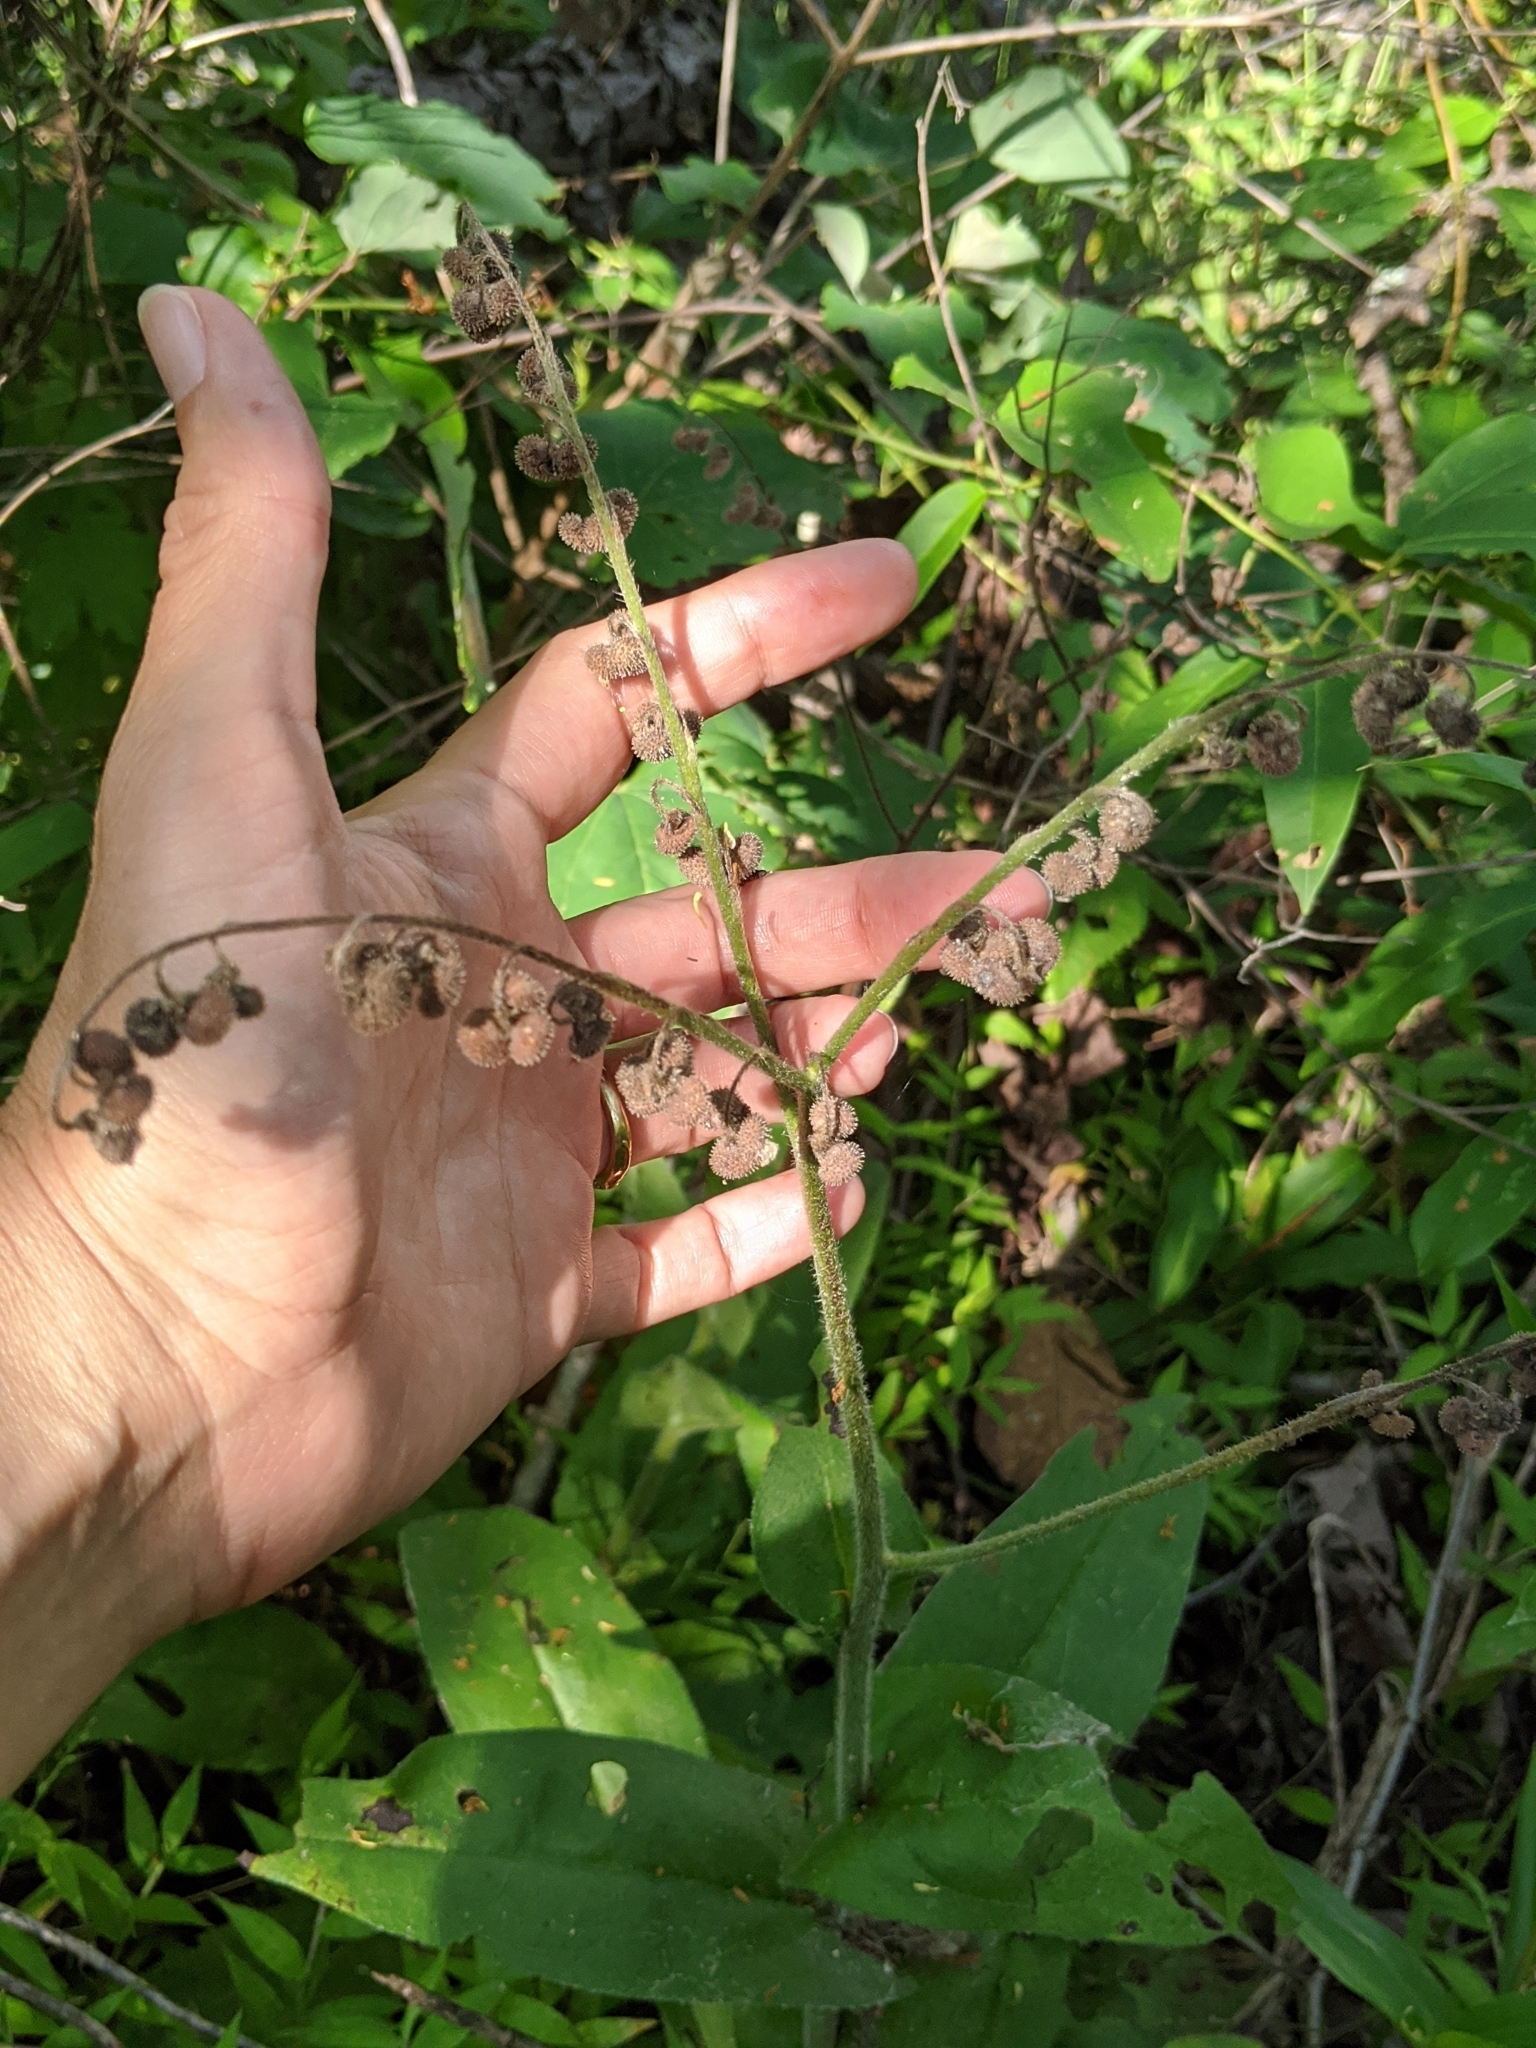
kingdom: Plantae
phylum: Tracheophyta
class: Magnoliopsida
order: Boraginales
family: Boraginaceae
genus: Andersonglossum
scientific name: Andersonglossum virginianum
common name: Wild comfrey
